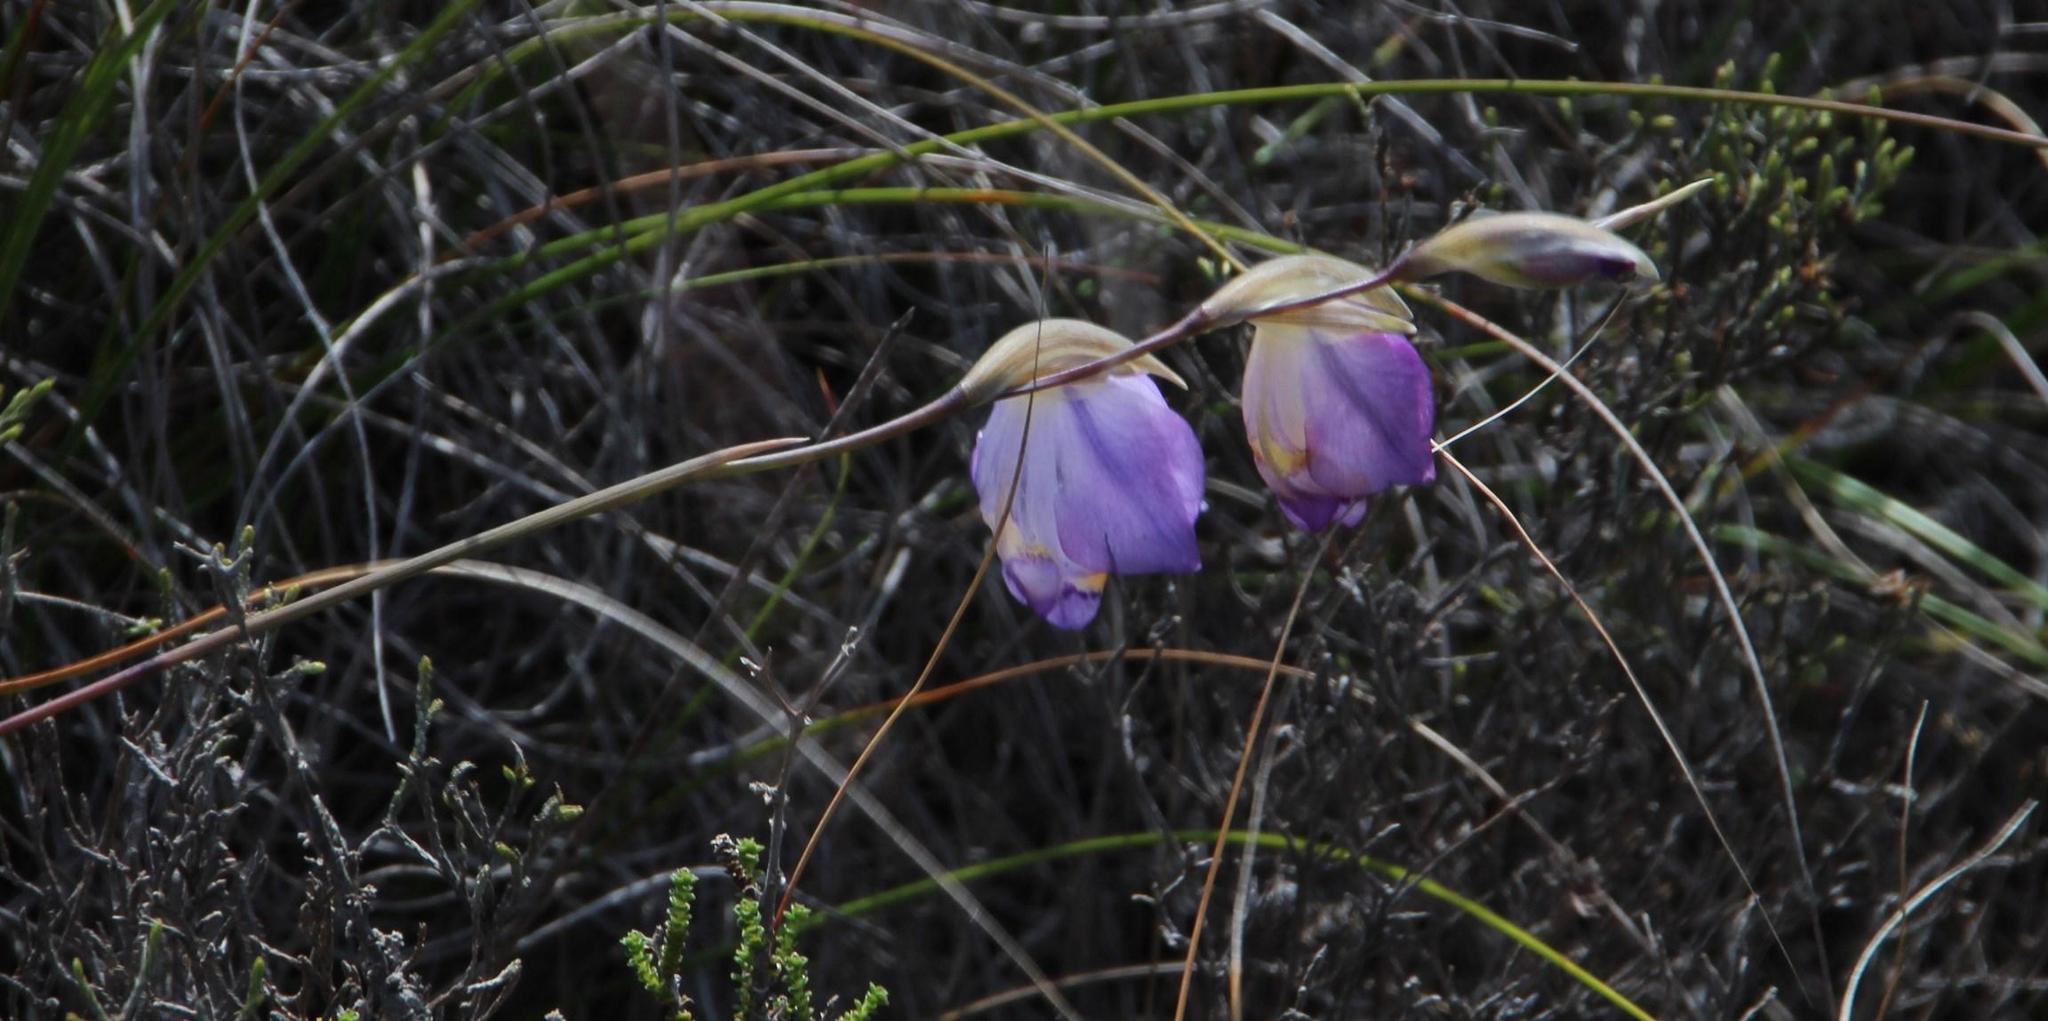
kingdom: Plantae
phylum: Tracheophyta
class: Liliopsida
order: Asparagales
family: Iridaceae
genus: Gladiolus
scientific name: Gladiolus rogersii
